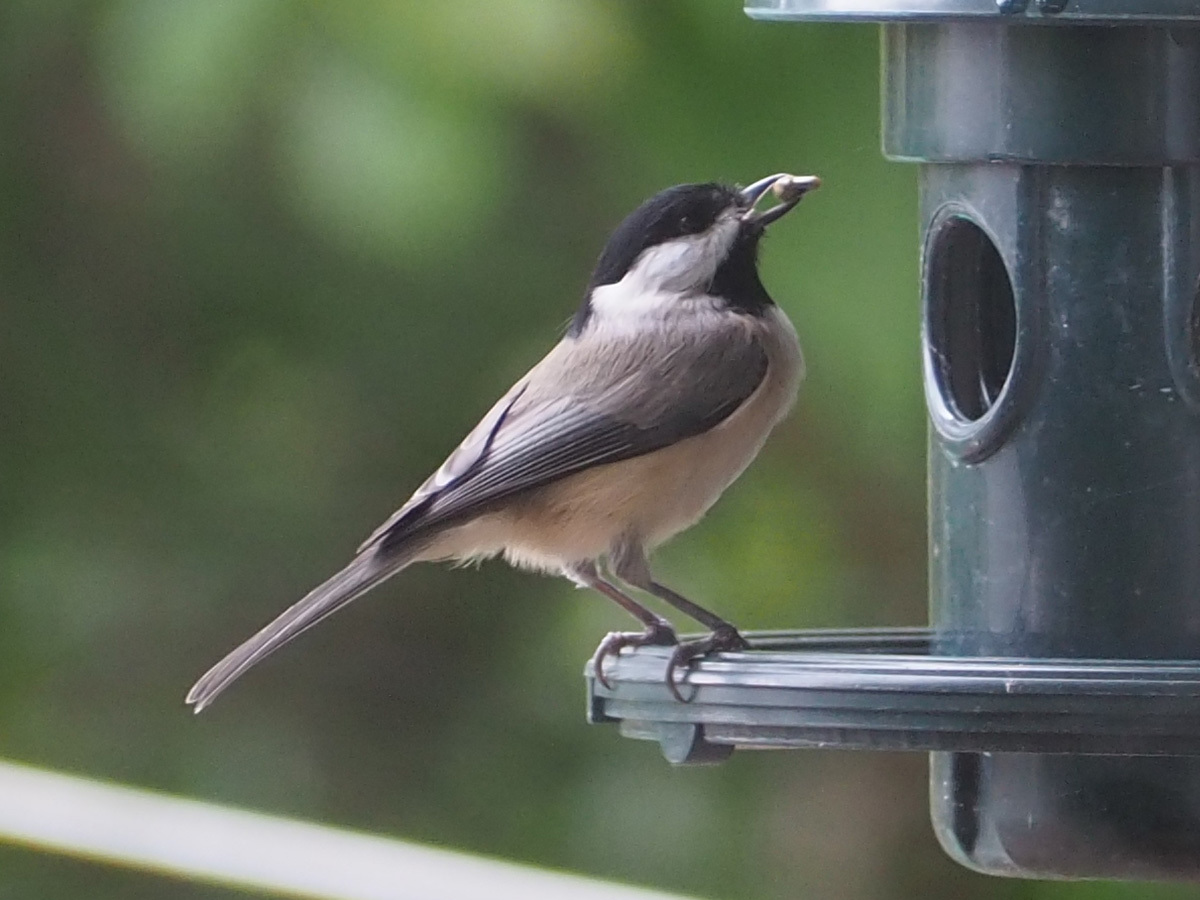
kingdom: Animalia
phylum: Chordata
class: Aves
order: Passeriformes
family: Paridae
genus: Poecile
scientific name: Poecile carolinensis
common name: Carolina chickadee
